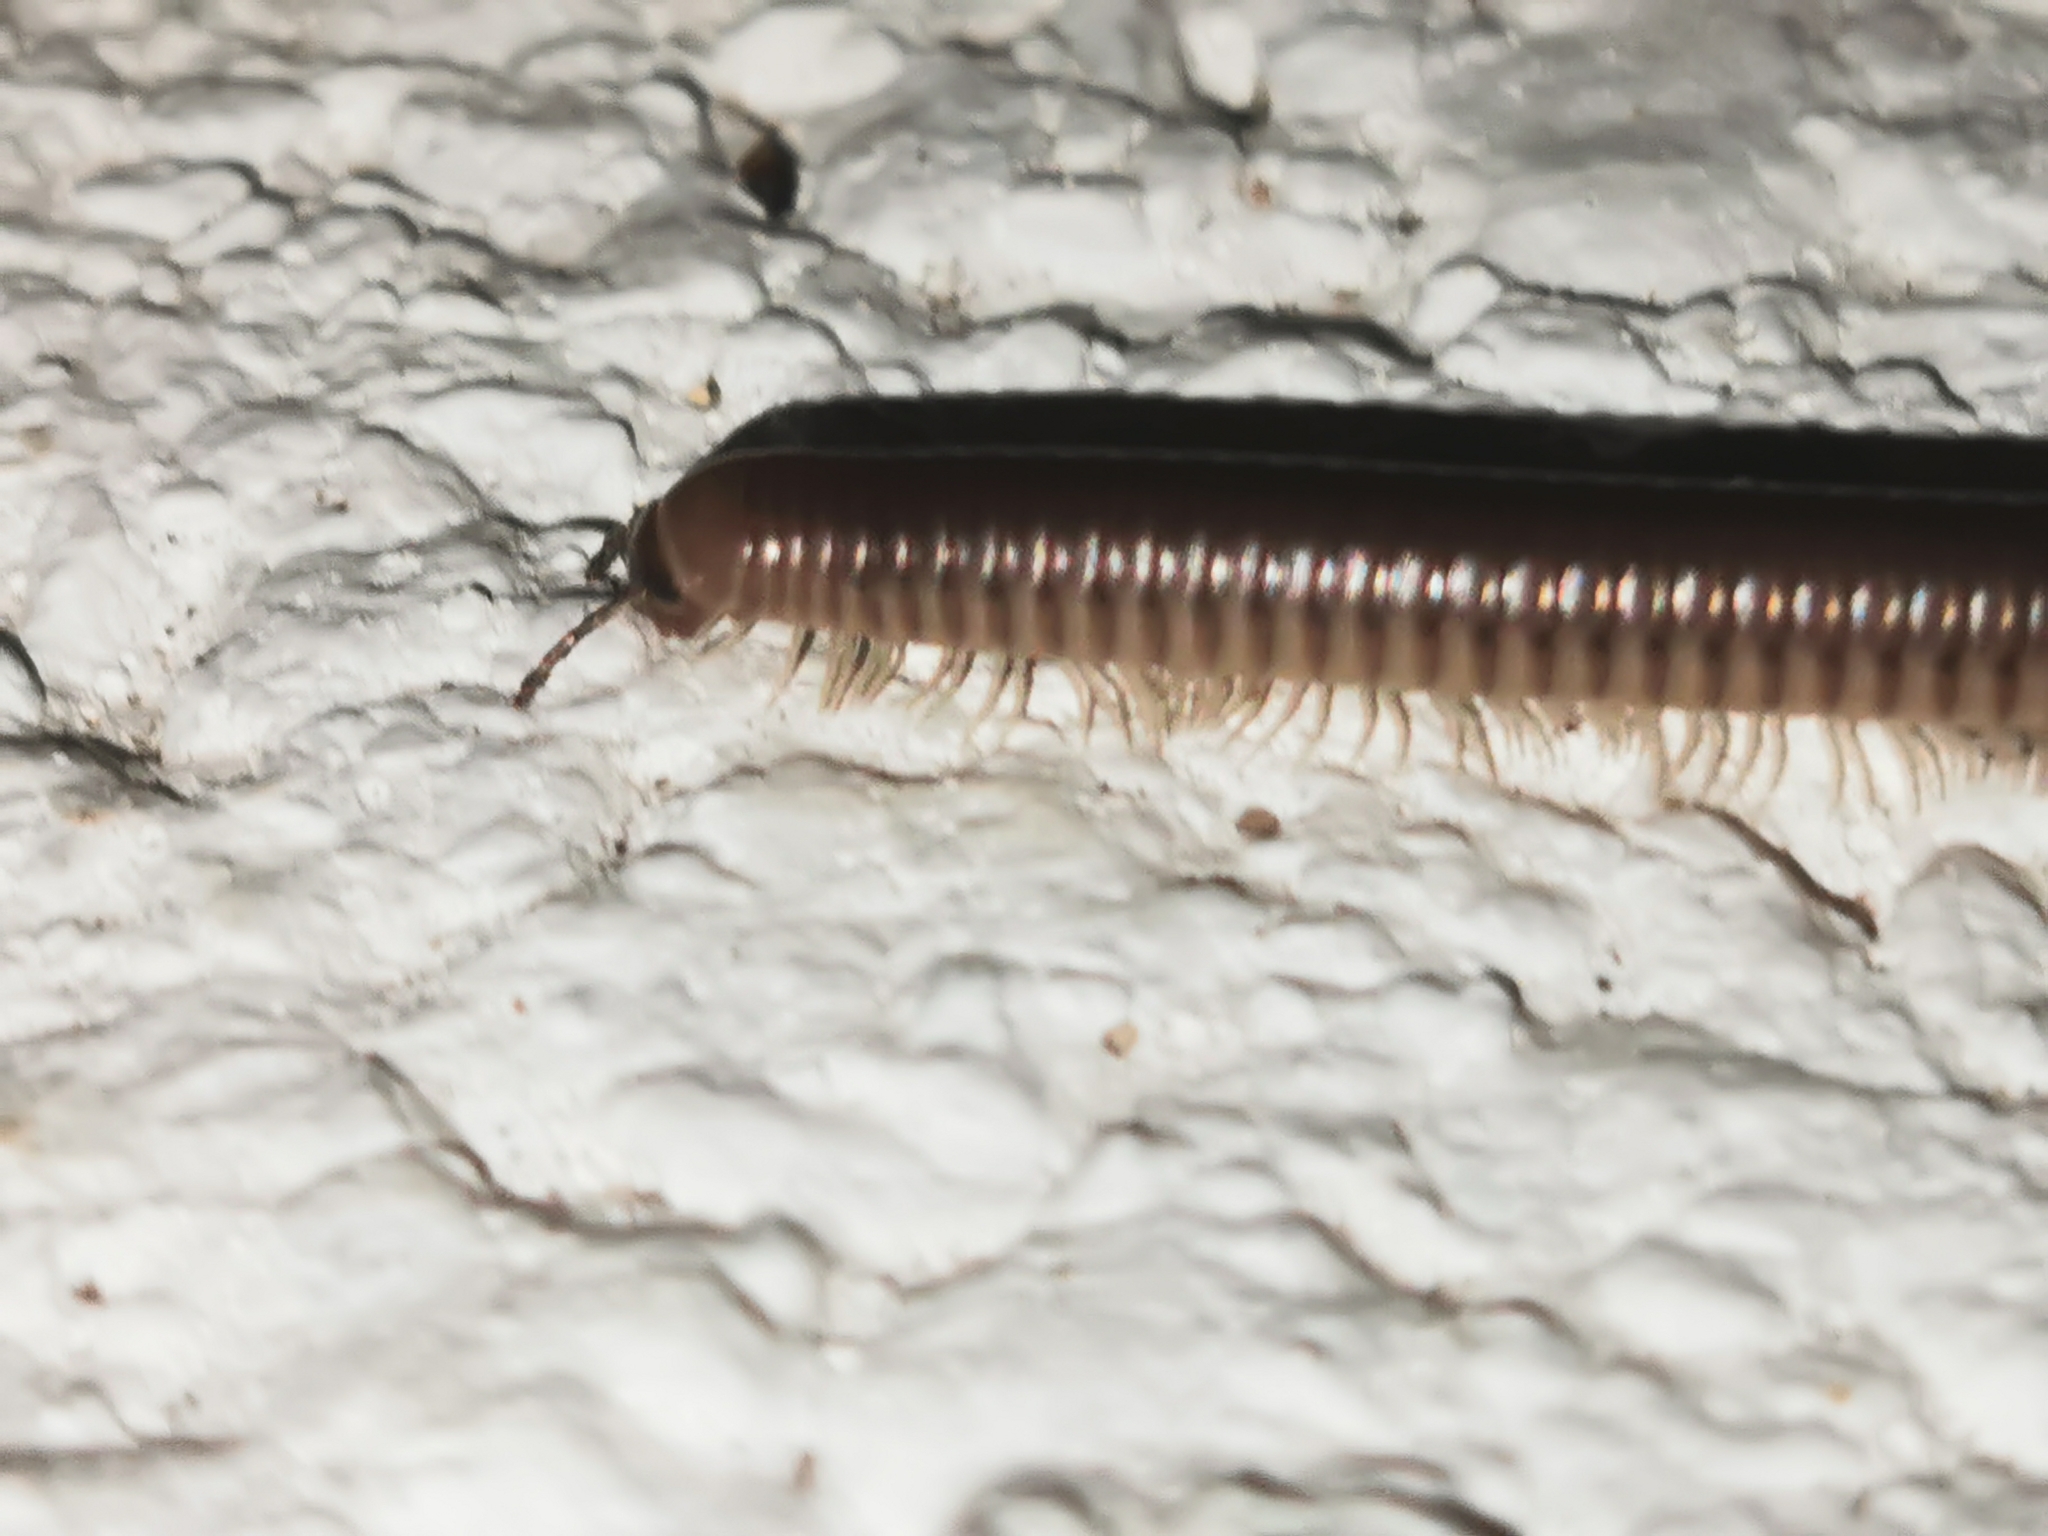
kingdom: Animalia
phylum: Arthropoda
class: Diplopoda
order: Julida
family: Julidae
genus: Pachyiulus
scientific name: Pachyiulus flavipes
